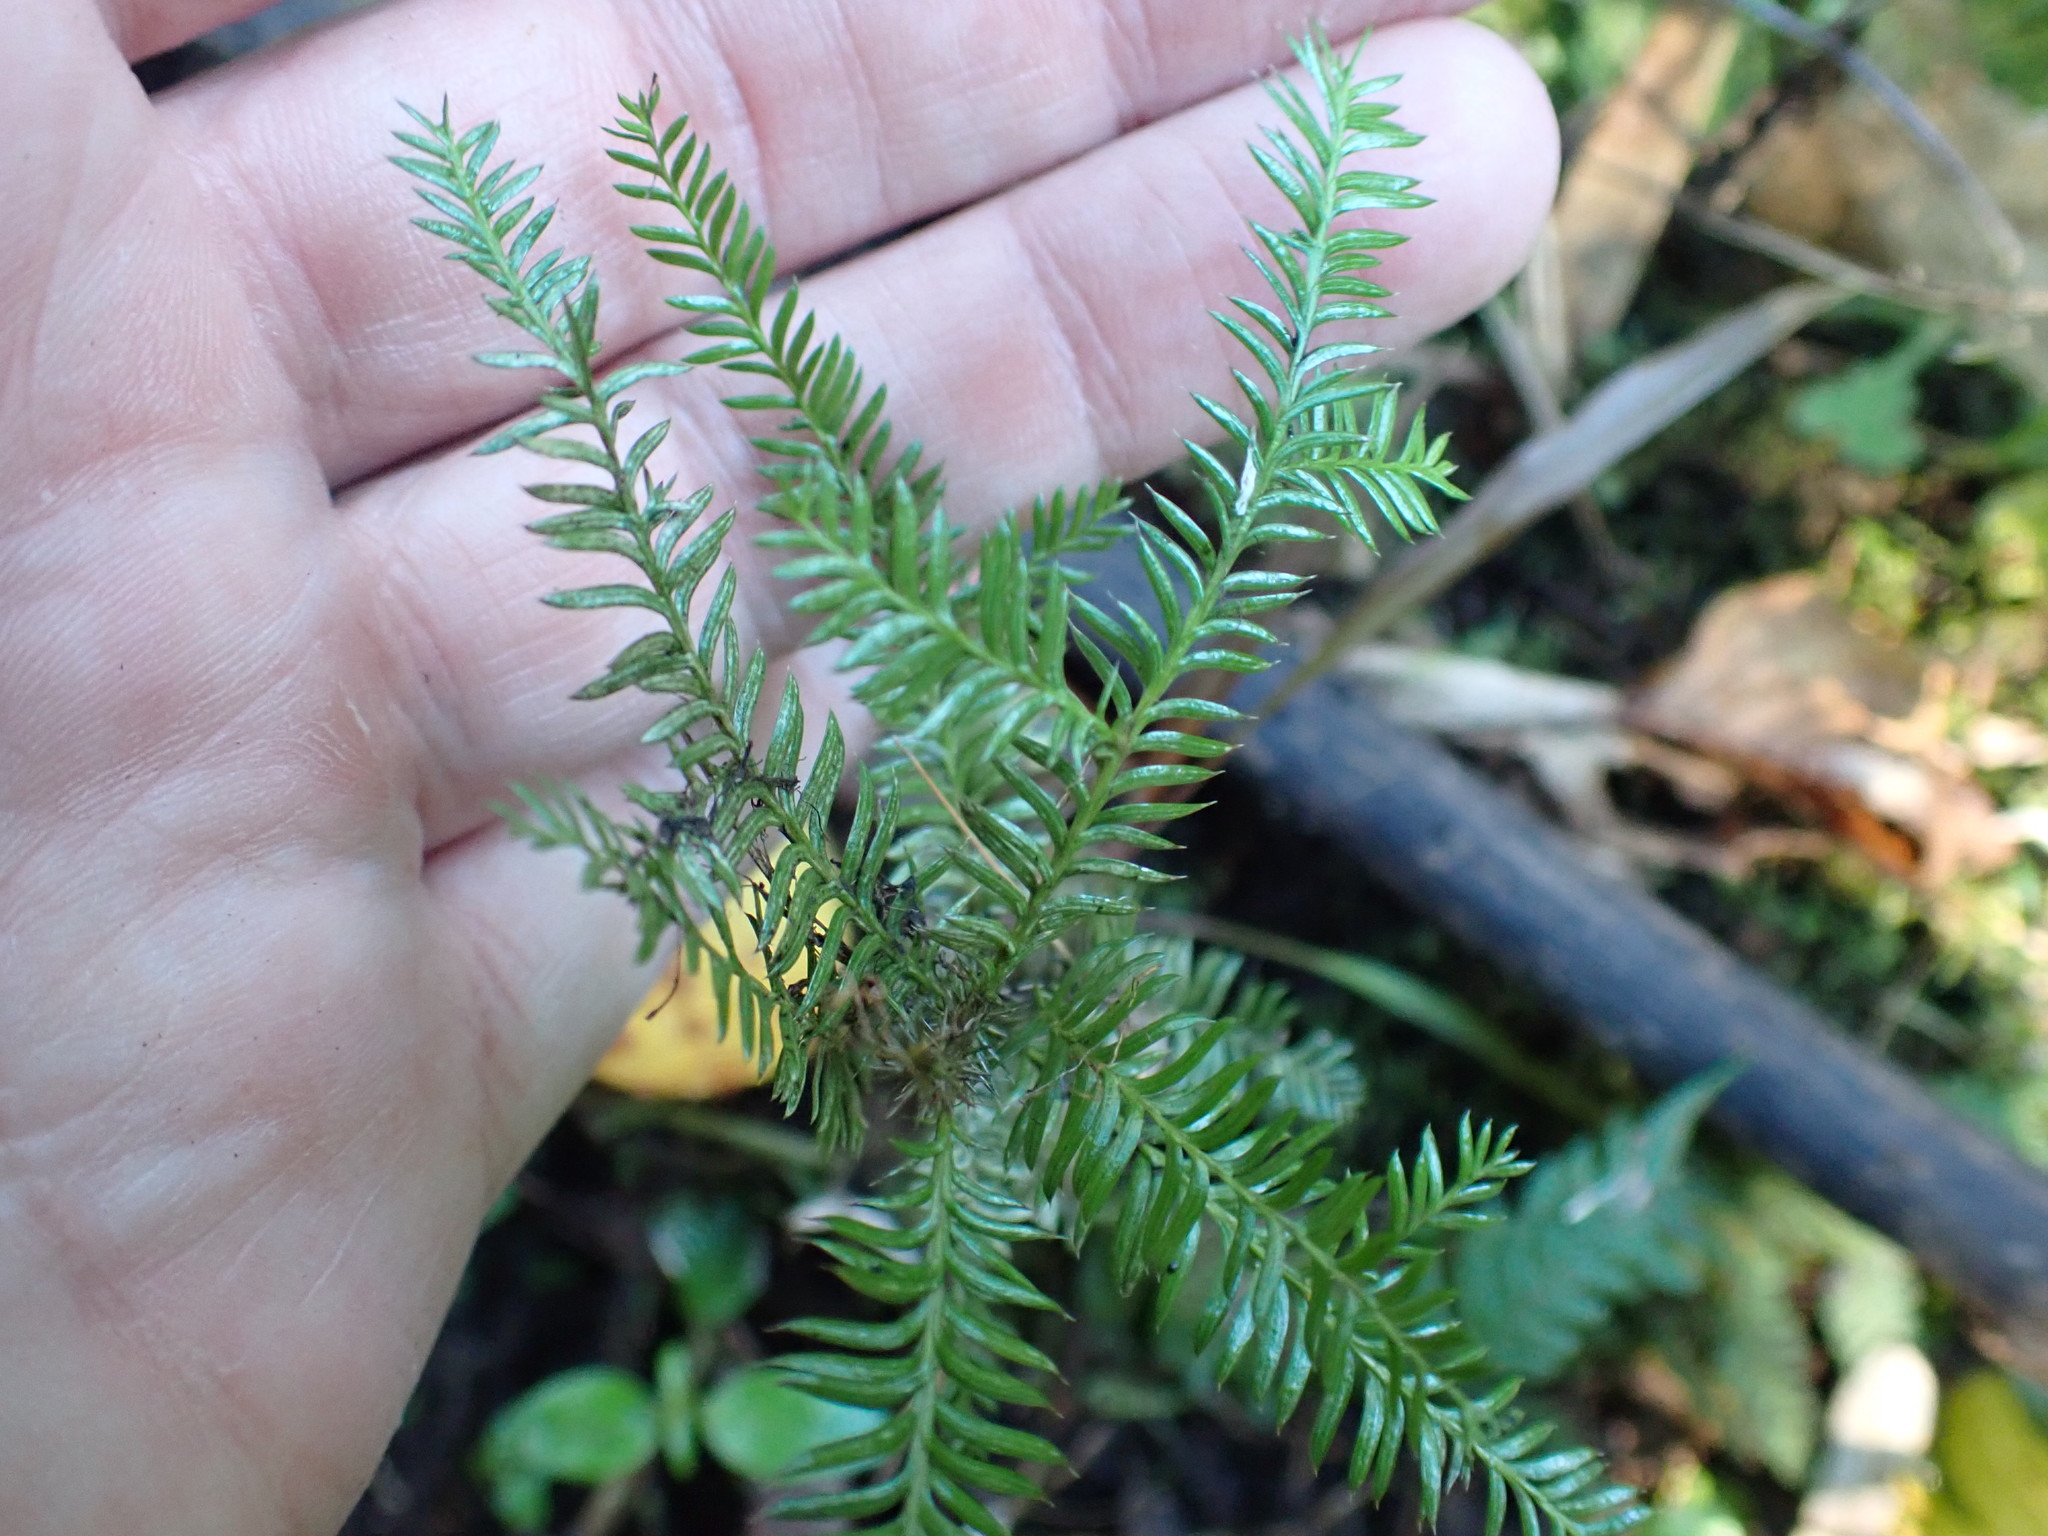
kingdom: Plantae
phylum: Tracheophyta
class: Pinopsida
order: Pinales
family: Podocarpaceae
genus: Dacrycarpus
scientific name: Dacrycarpus dacrydioides
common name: White pine
